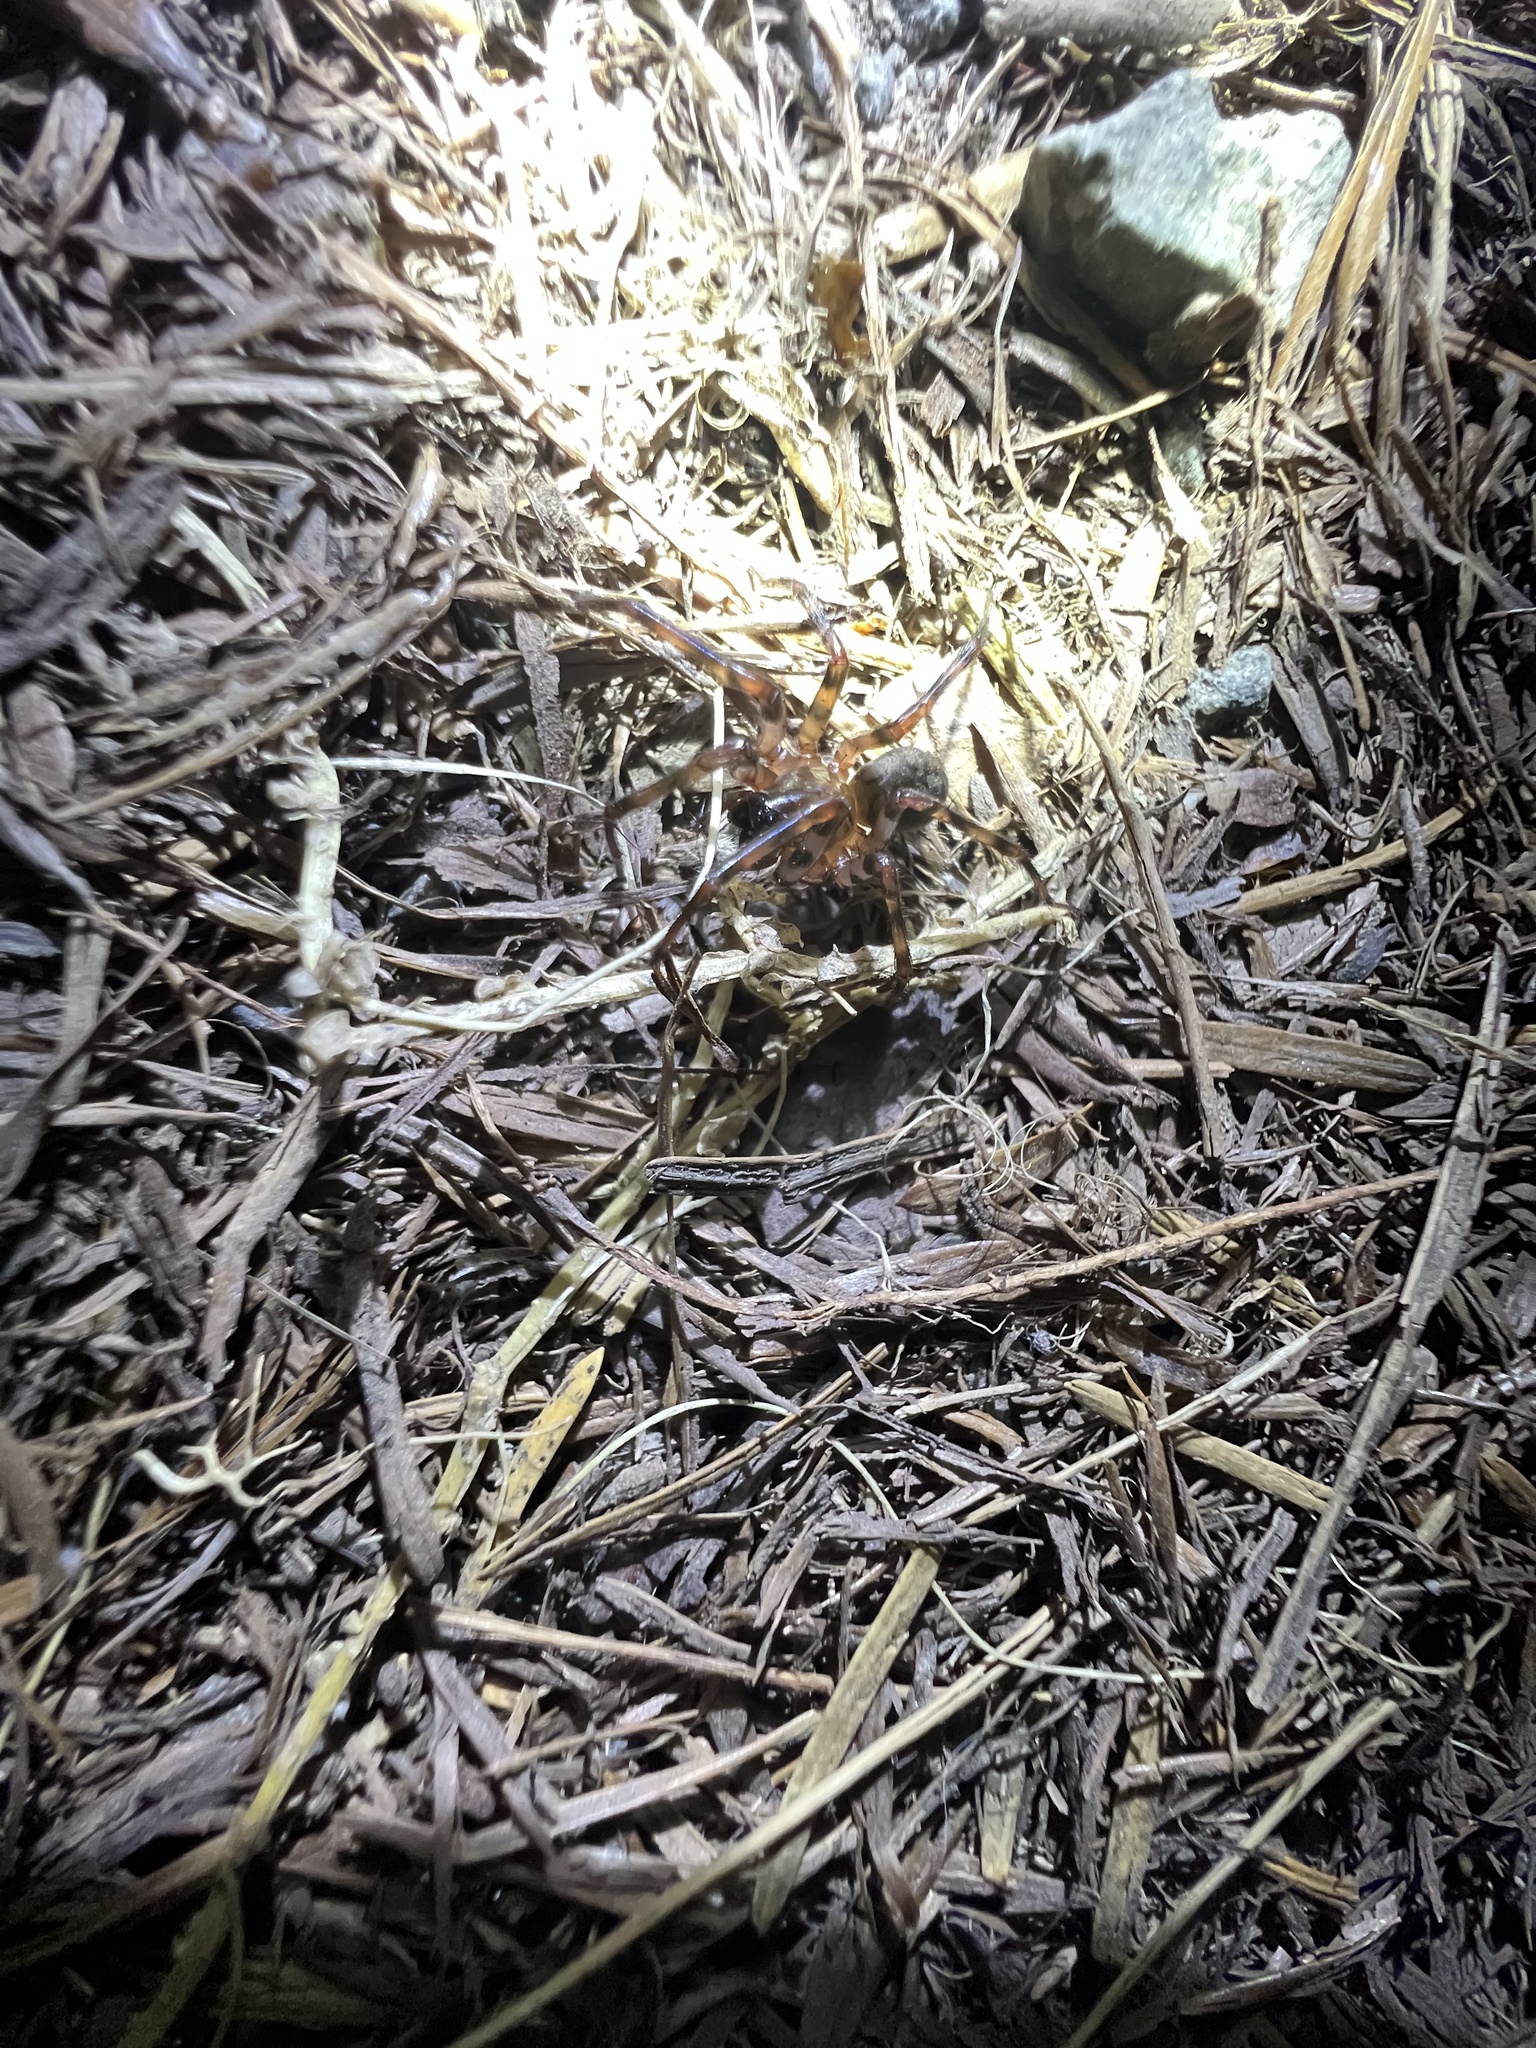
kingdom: Animalia
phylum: Arthropoda
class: Arachnida
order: Araneae
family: Cybaeidae
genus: Cybaeus
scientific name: Cybaeus signifer
